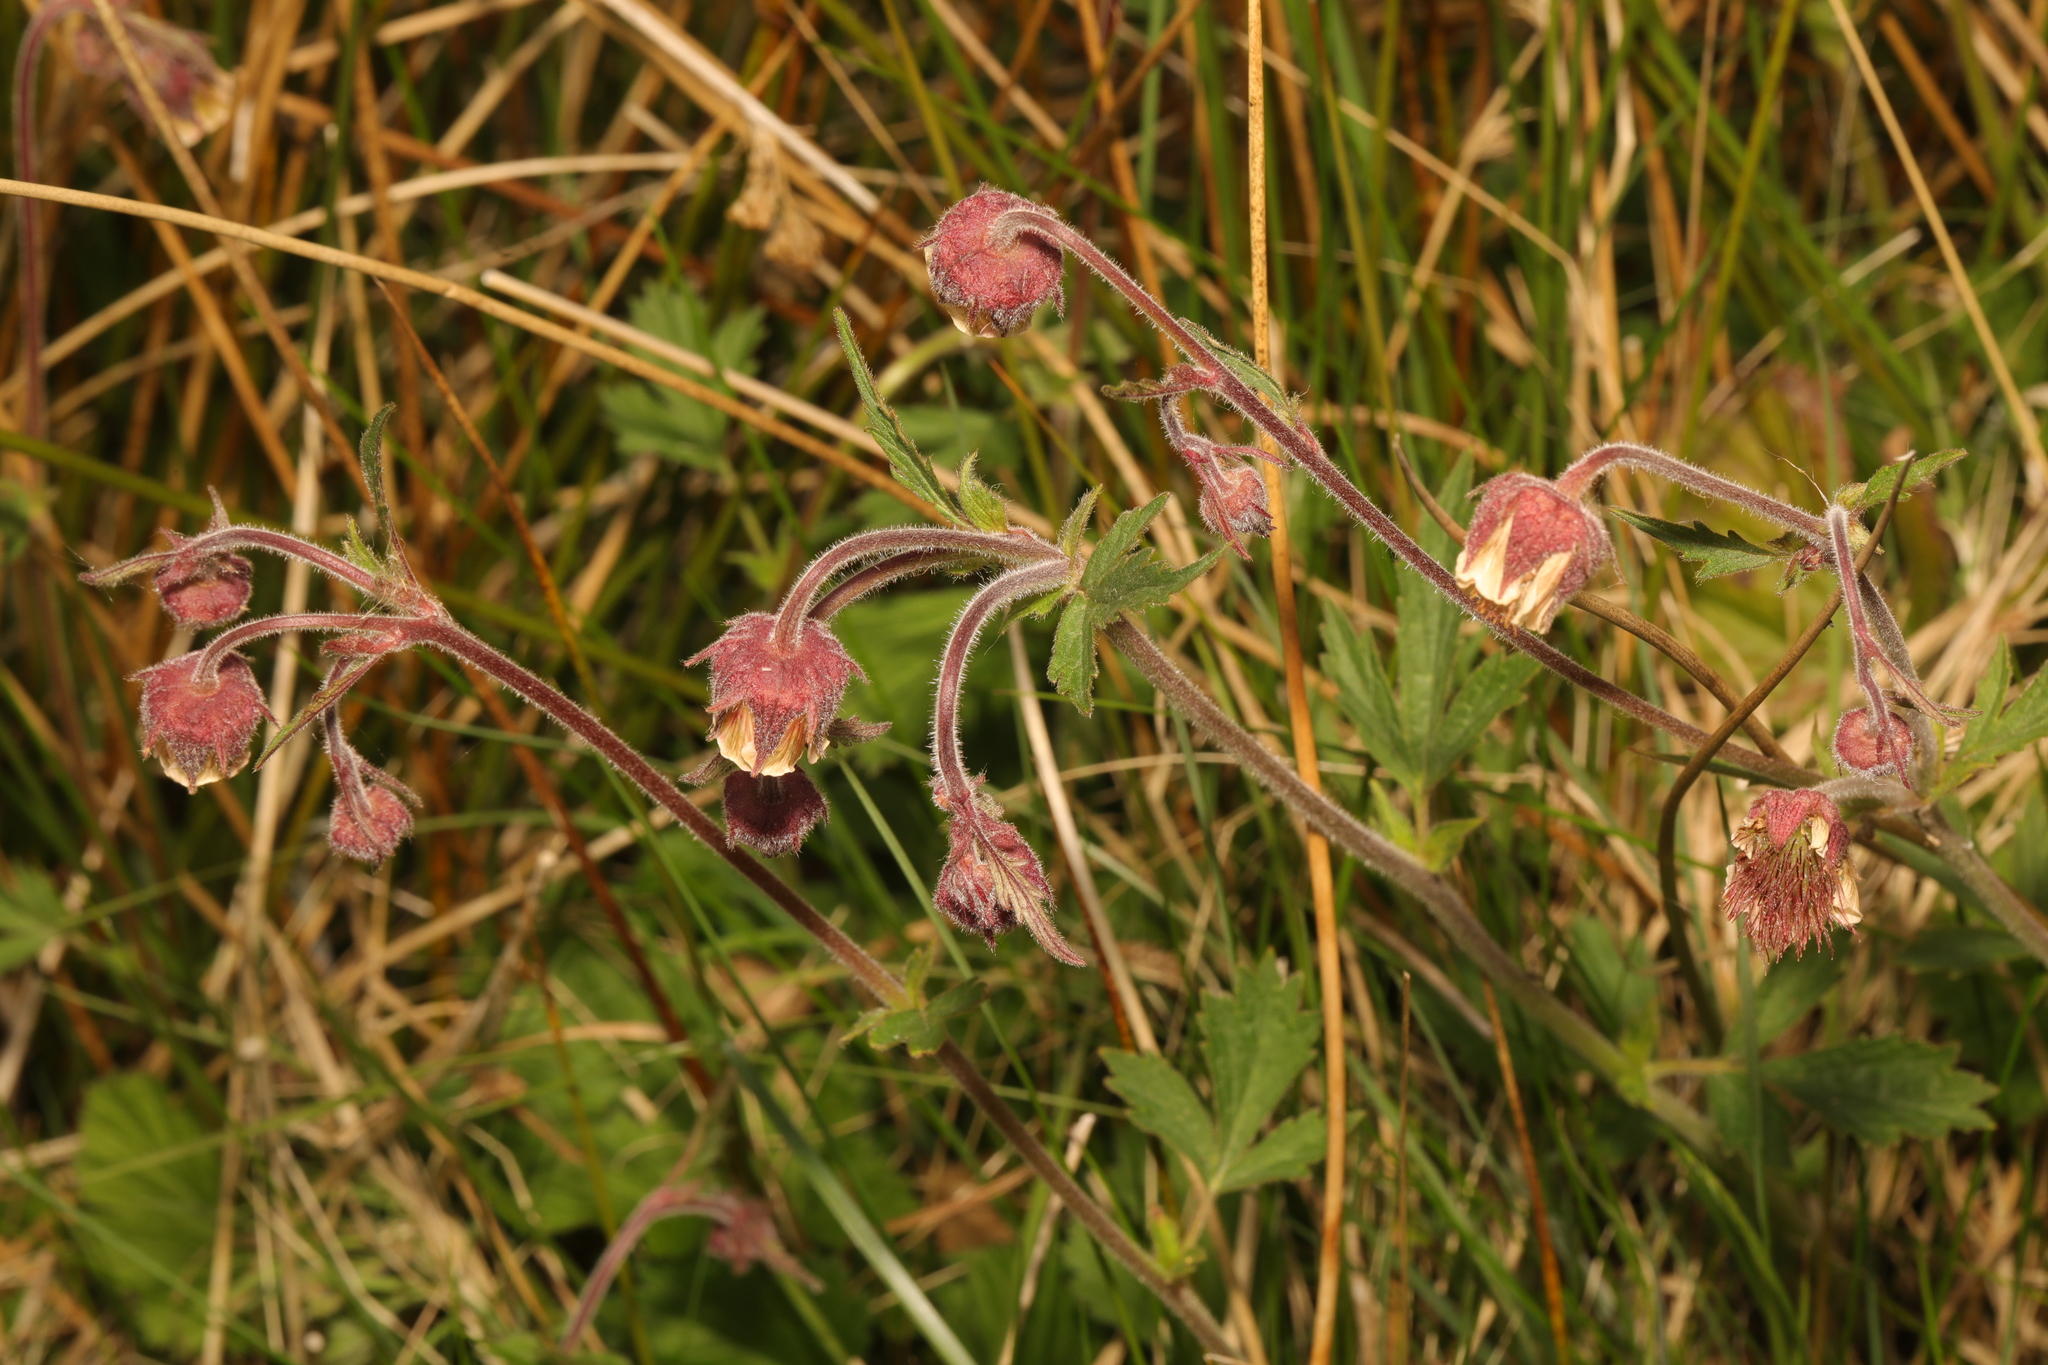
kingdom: Plantae
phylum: Tracheophyta
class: Magnoliopsida
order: Rosales
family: Rosaceae
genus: Geum
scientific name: Geum rivale
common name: Water avens
